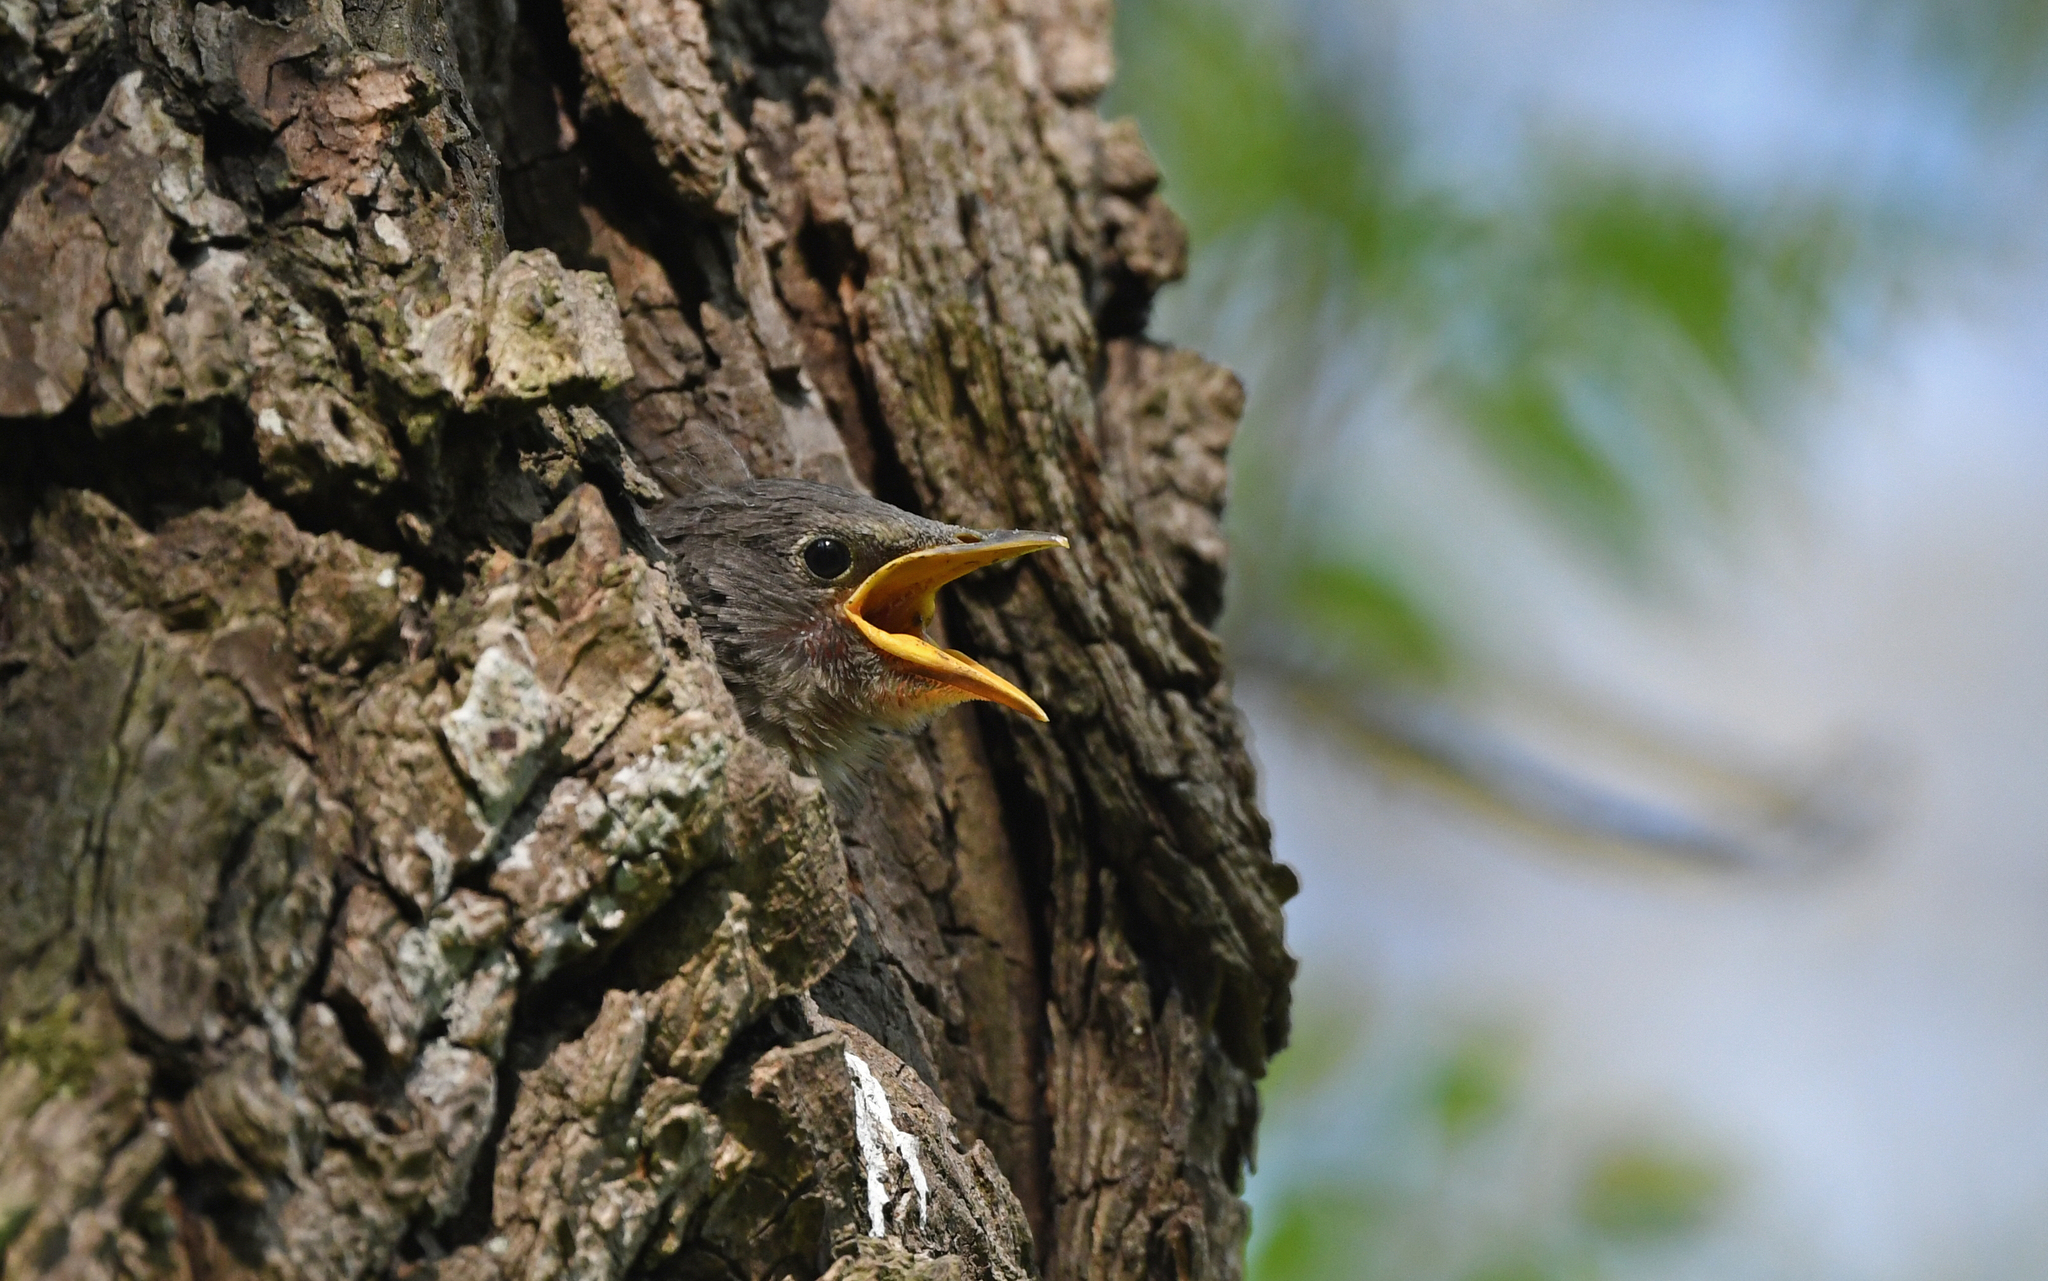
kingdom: Animalia
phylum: Chordata
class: Aves
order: Passeriformes
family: Sturnidae
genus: Sturnus
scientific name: Sturnus vulgaris
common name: Common starling
